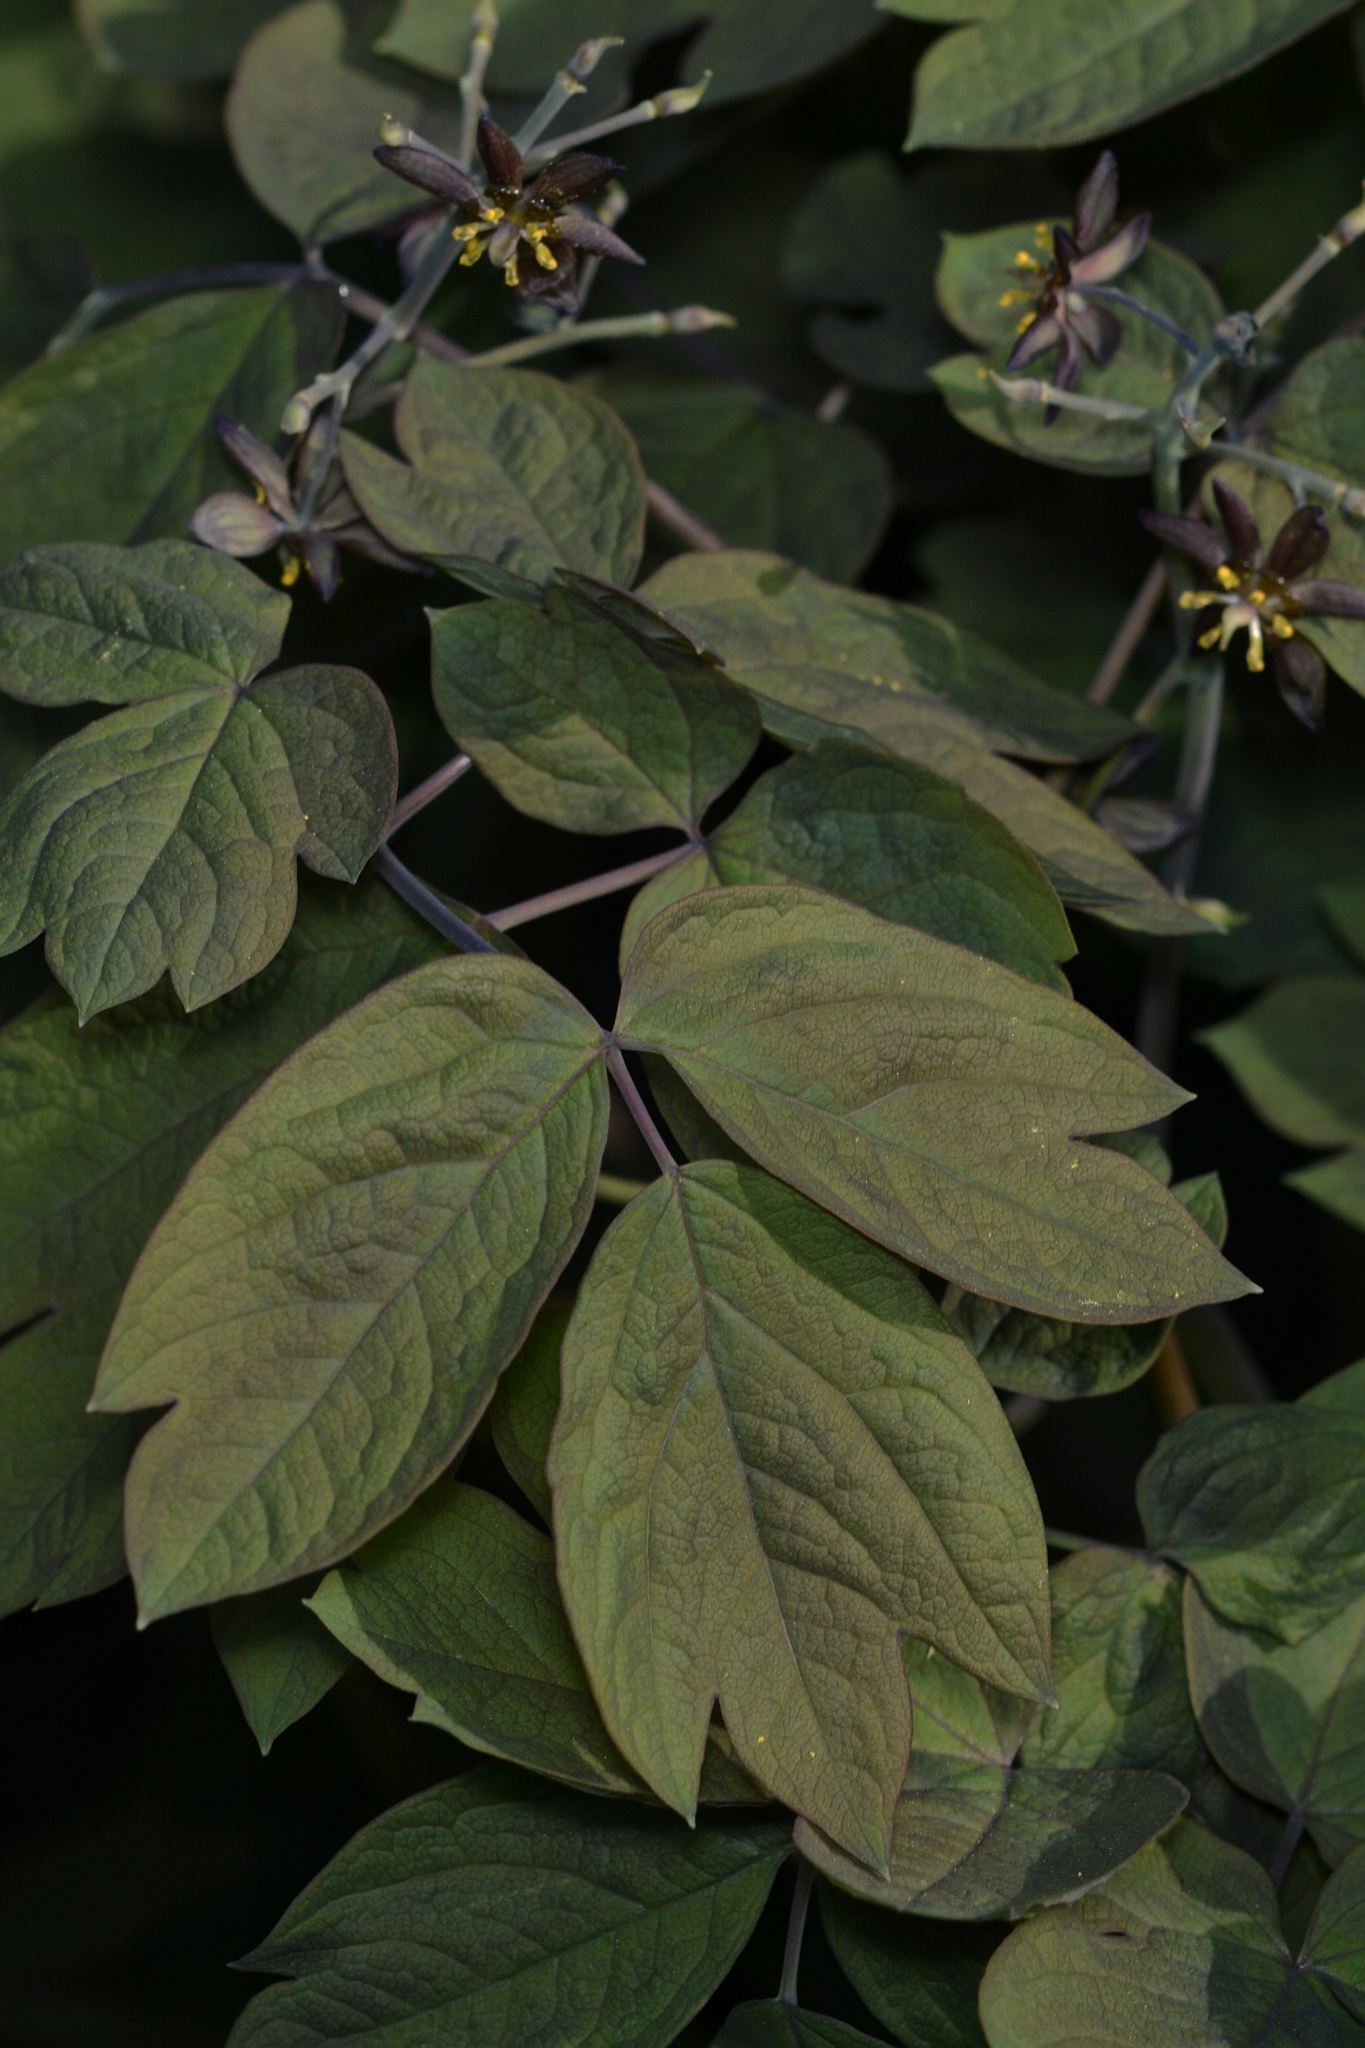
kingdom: Plantae
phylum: Tracheophyta
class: Magnoliopsida
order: Ranunculales
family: Berberidaceae
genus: Caulophyllum
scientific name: Caulophyllum giganteum
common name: Blue cohosh
